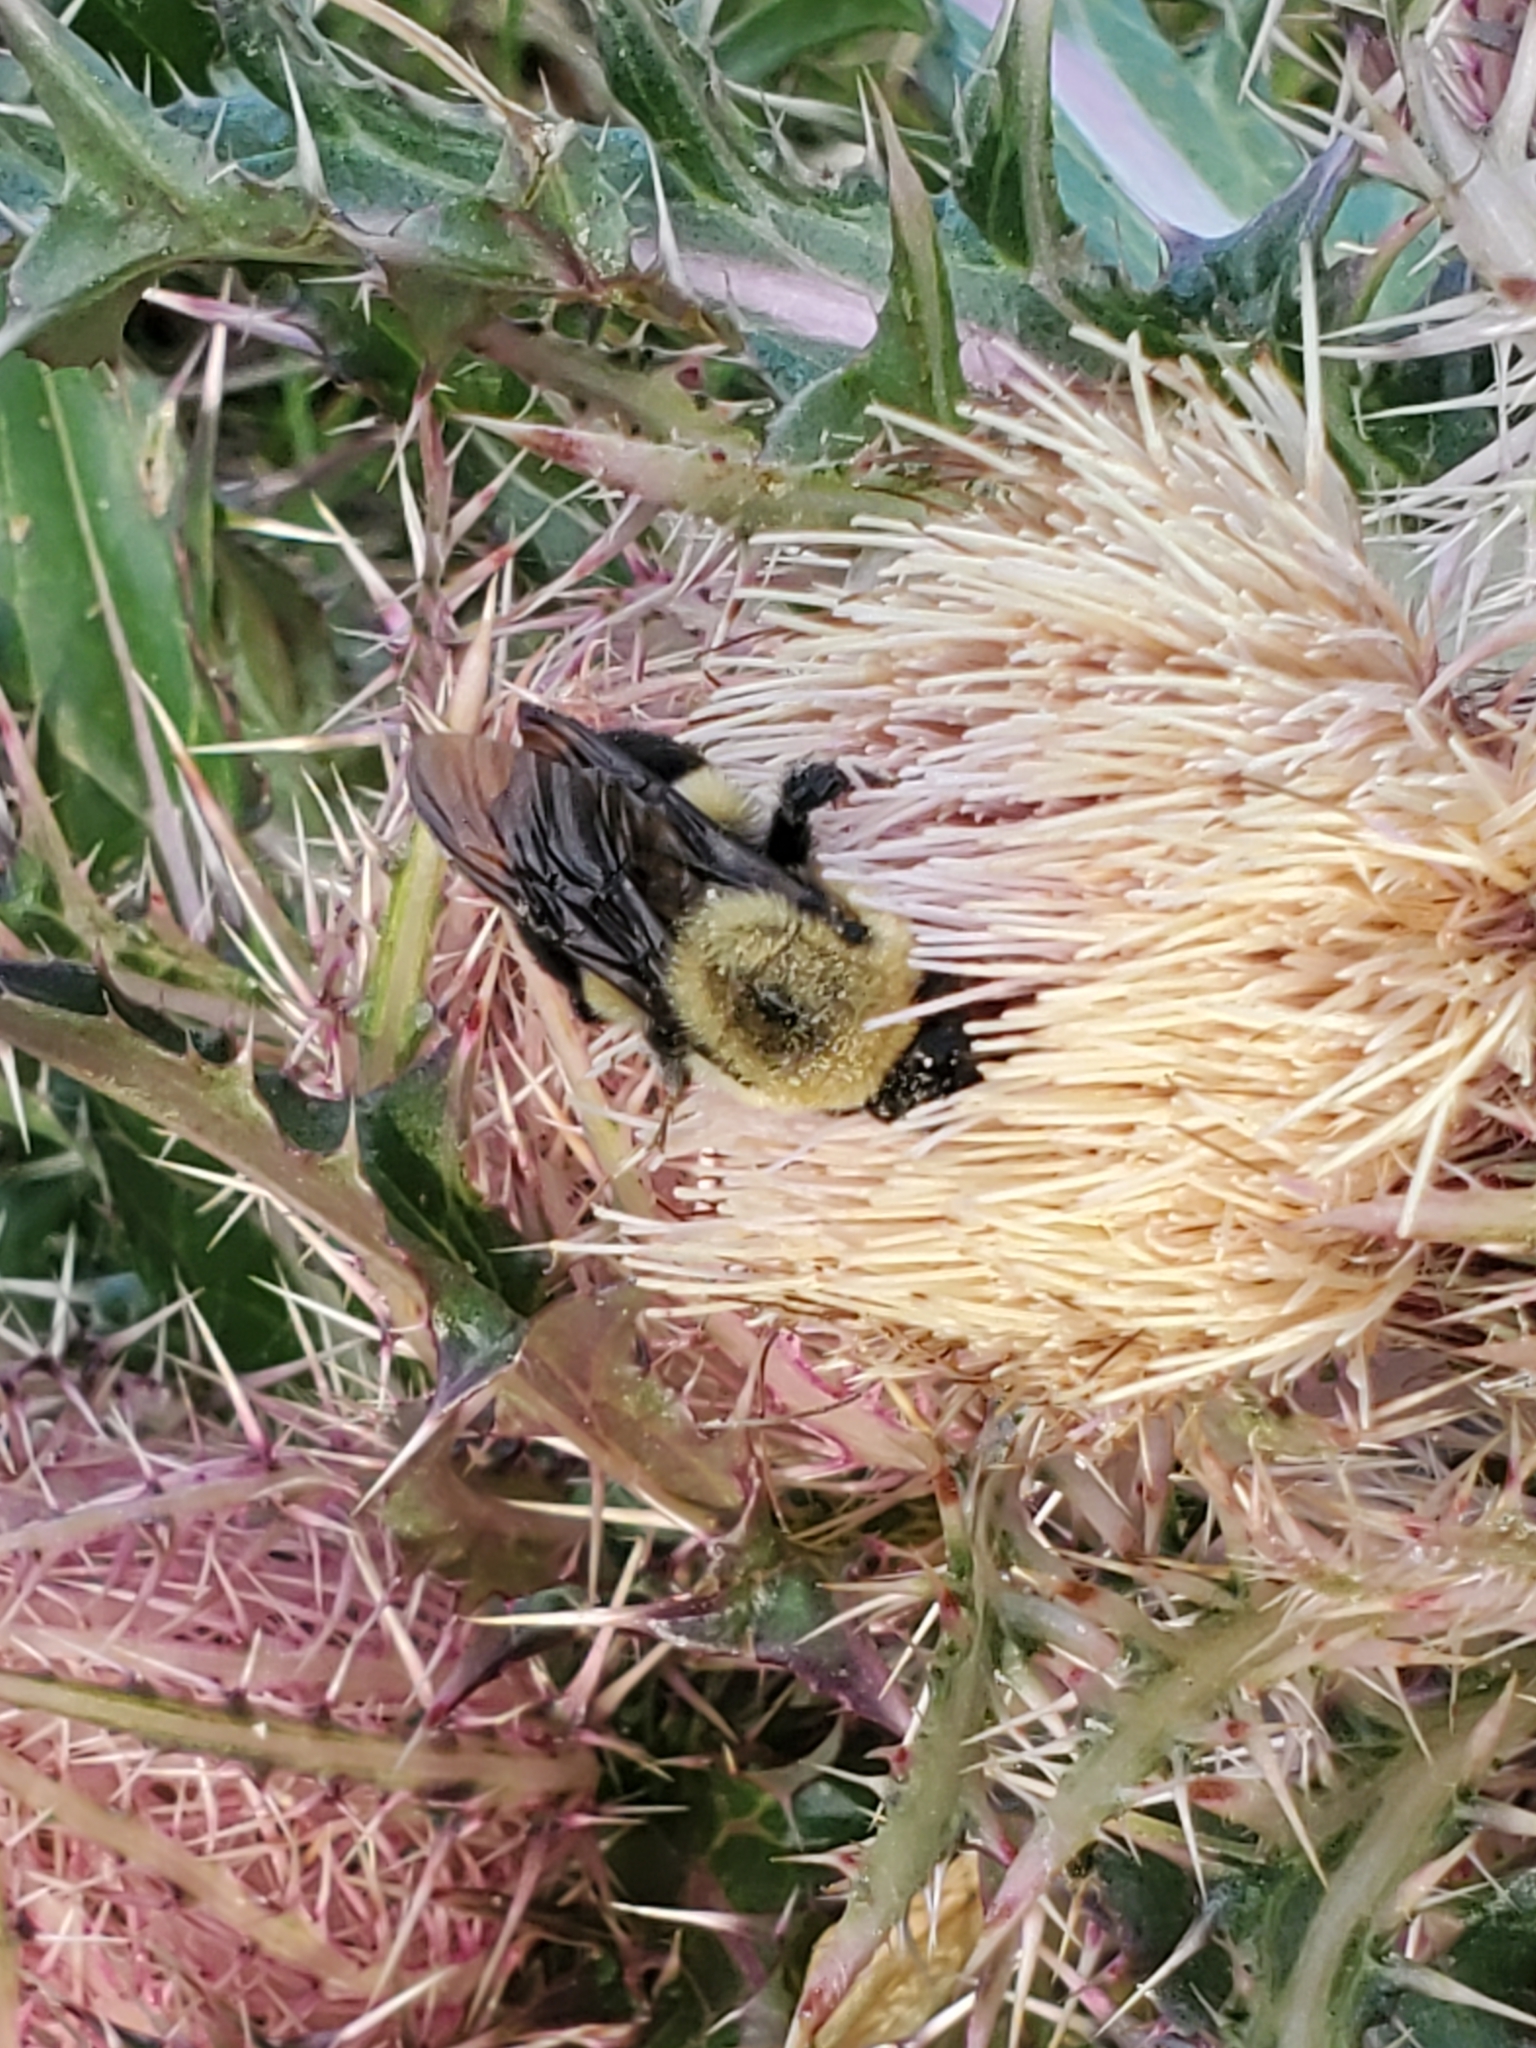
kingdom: Animalia
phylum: Arthropoda
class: Insecta
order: Hymenoptera
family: Apidae
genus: Bombus
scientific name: Bombus griseocollis
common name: Brown-belted bumble bee
